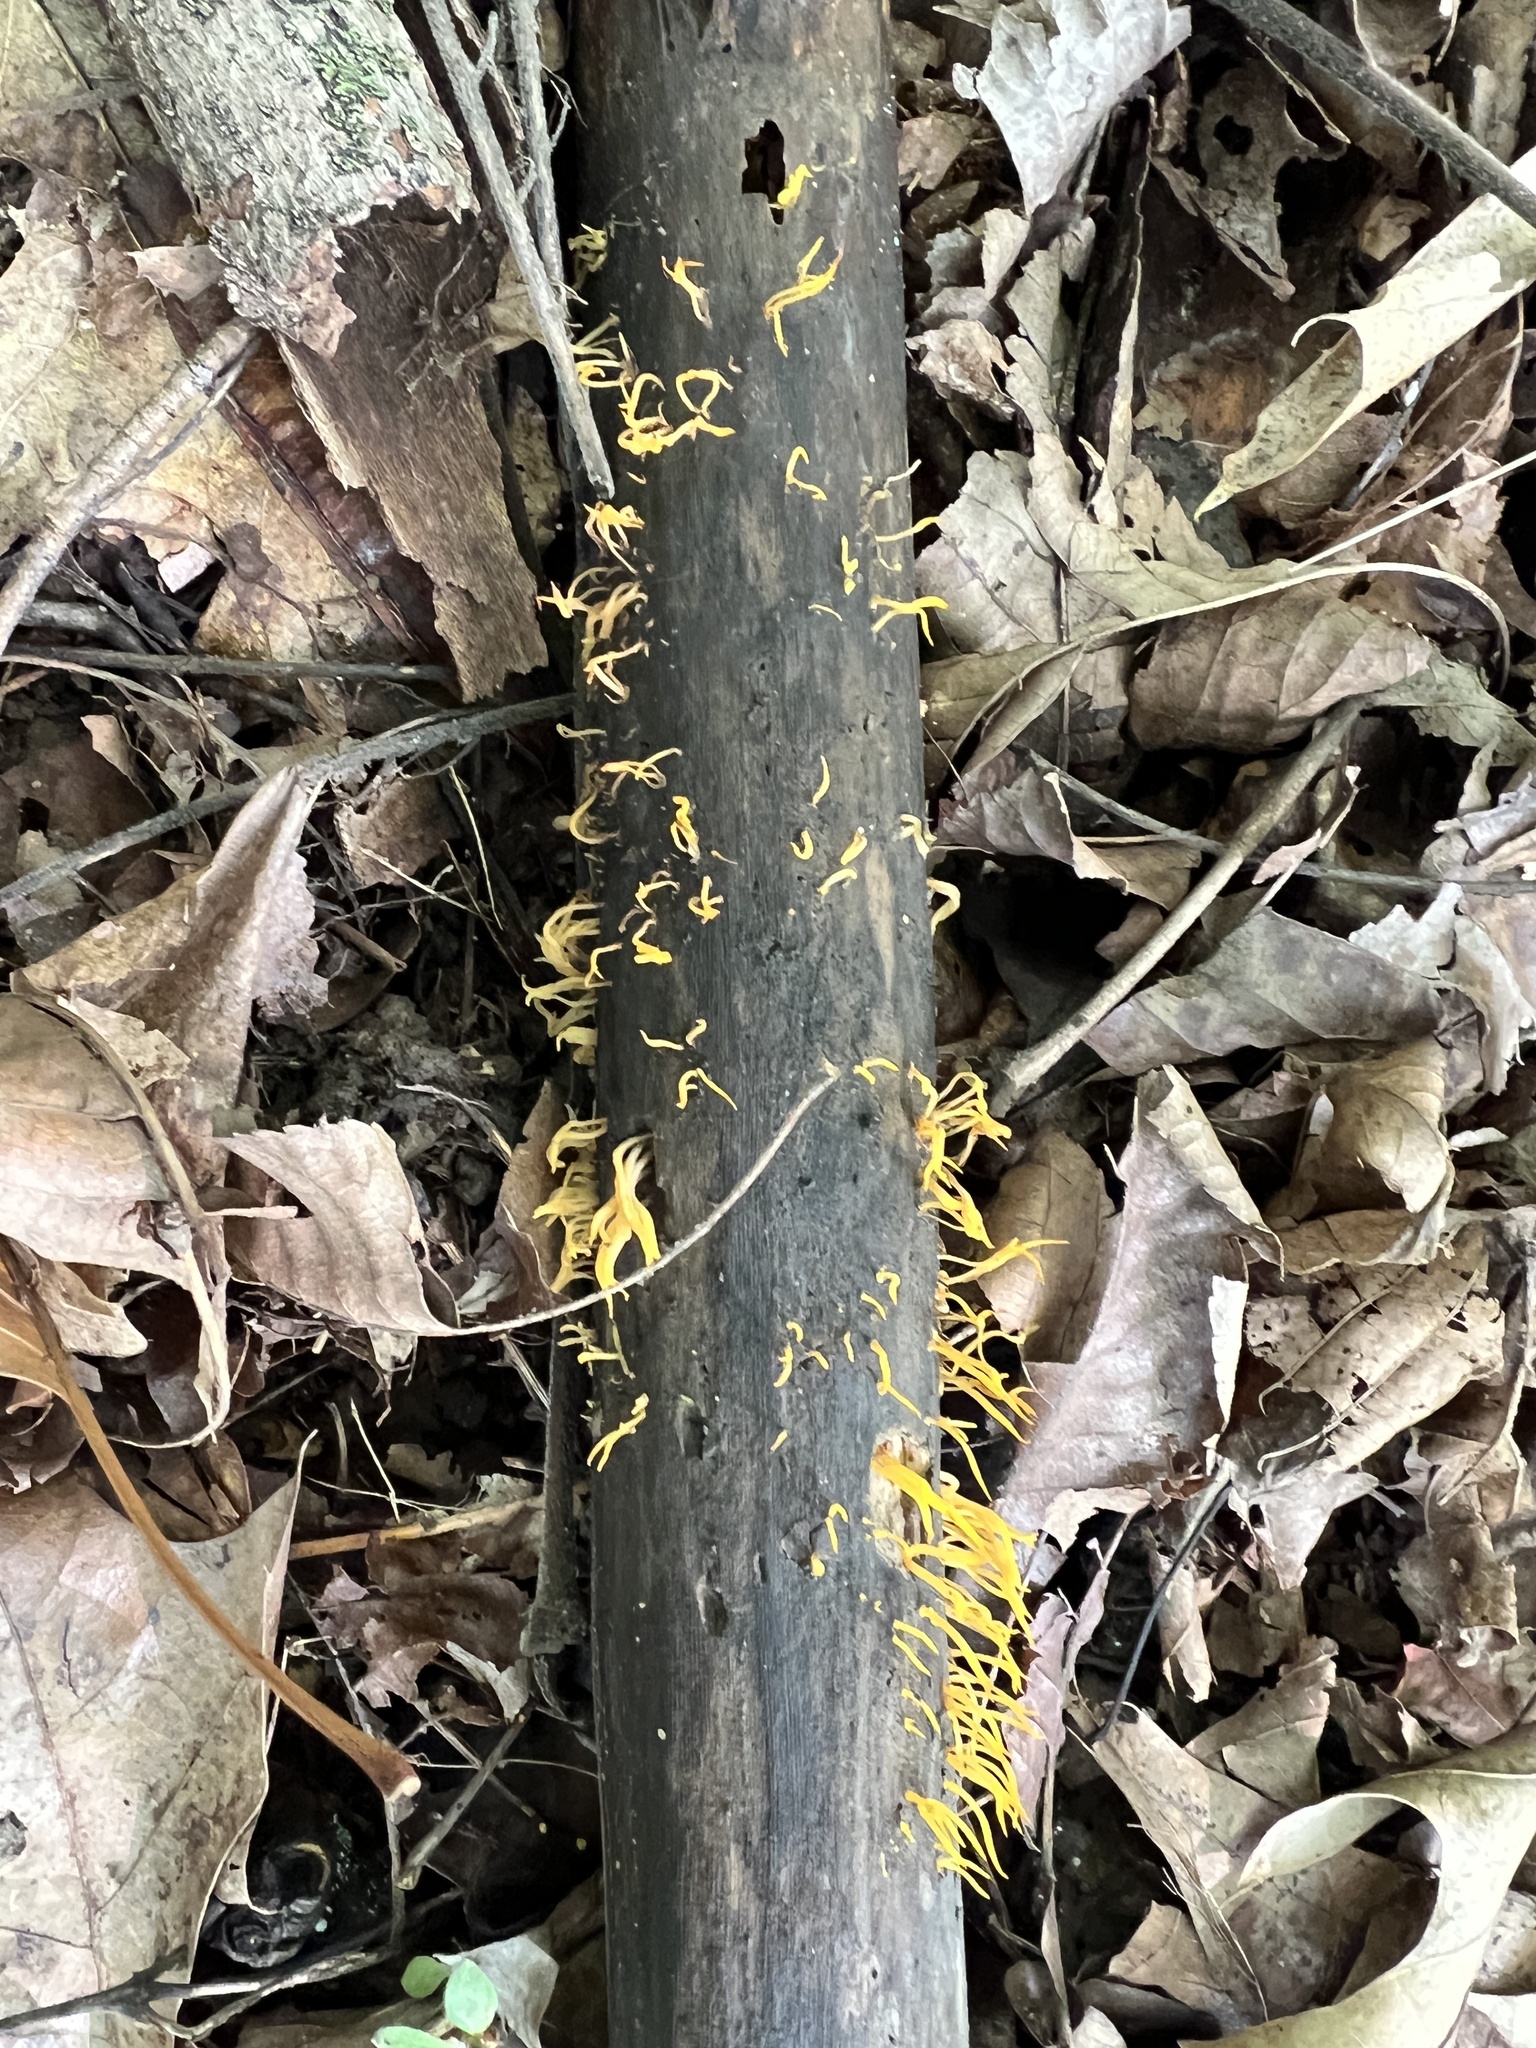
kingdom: Fungi
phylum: Basidiomycota
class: Dacrymycetes
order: Dacrymycetales
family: Dacrymycetaceae
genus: Calocera
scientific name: Calocera cornea
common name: Small stagshorn
